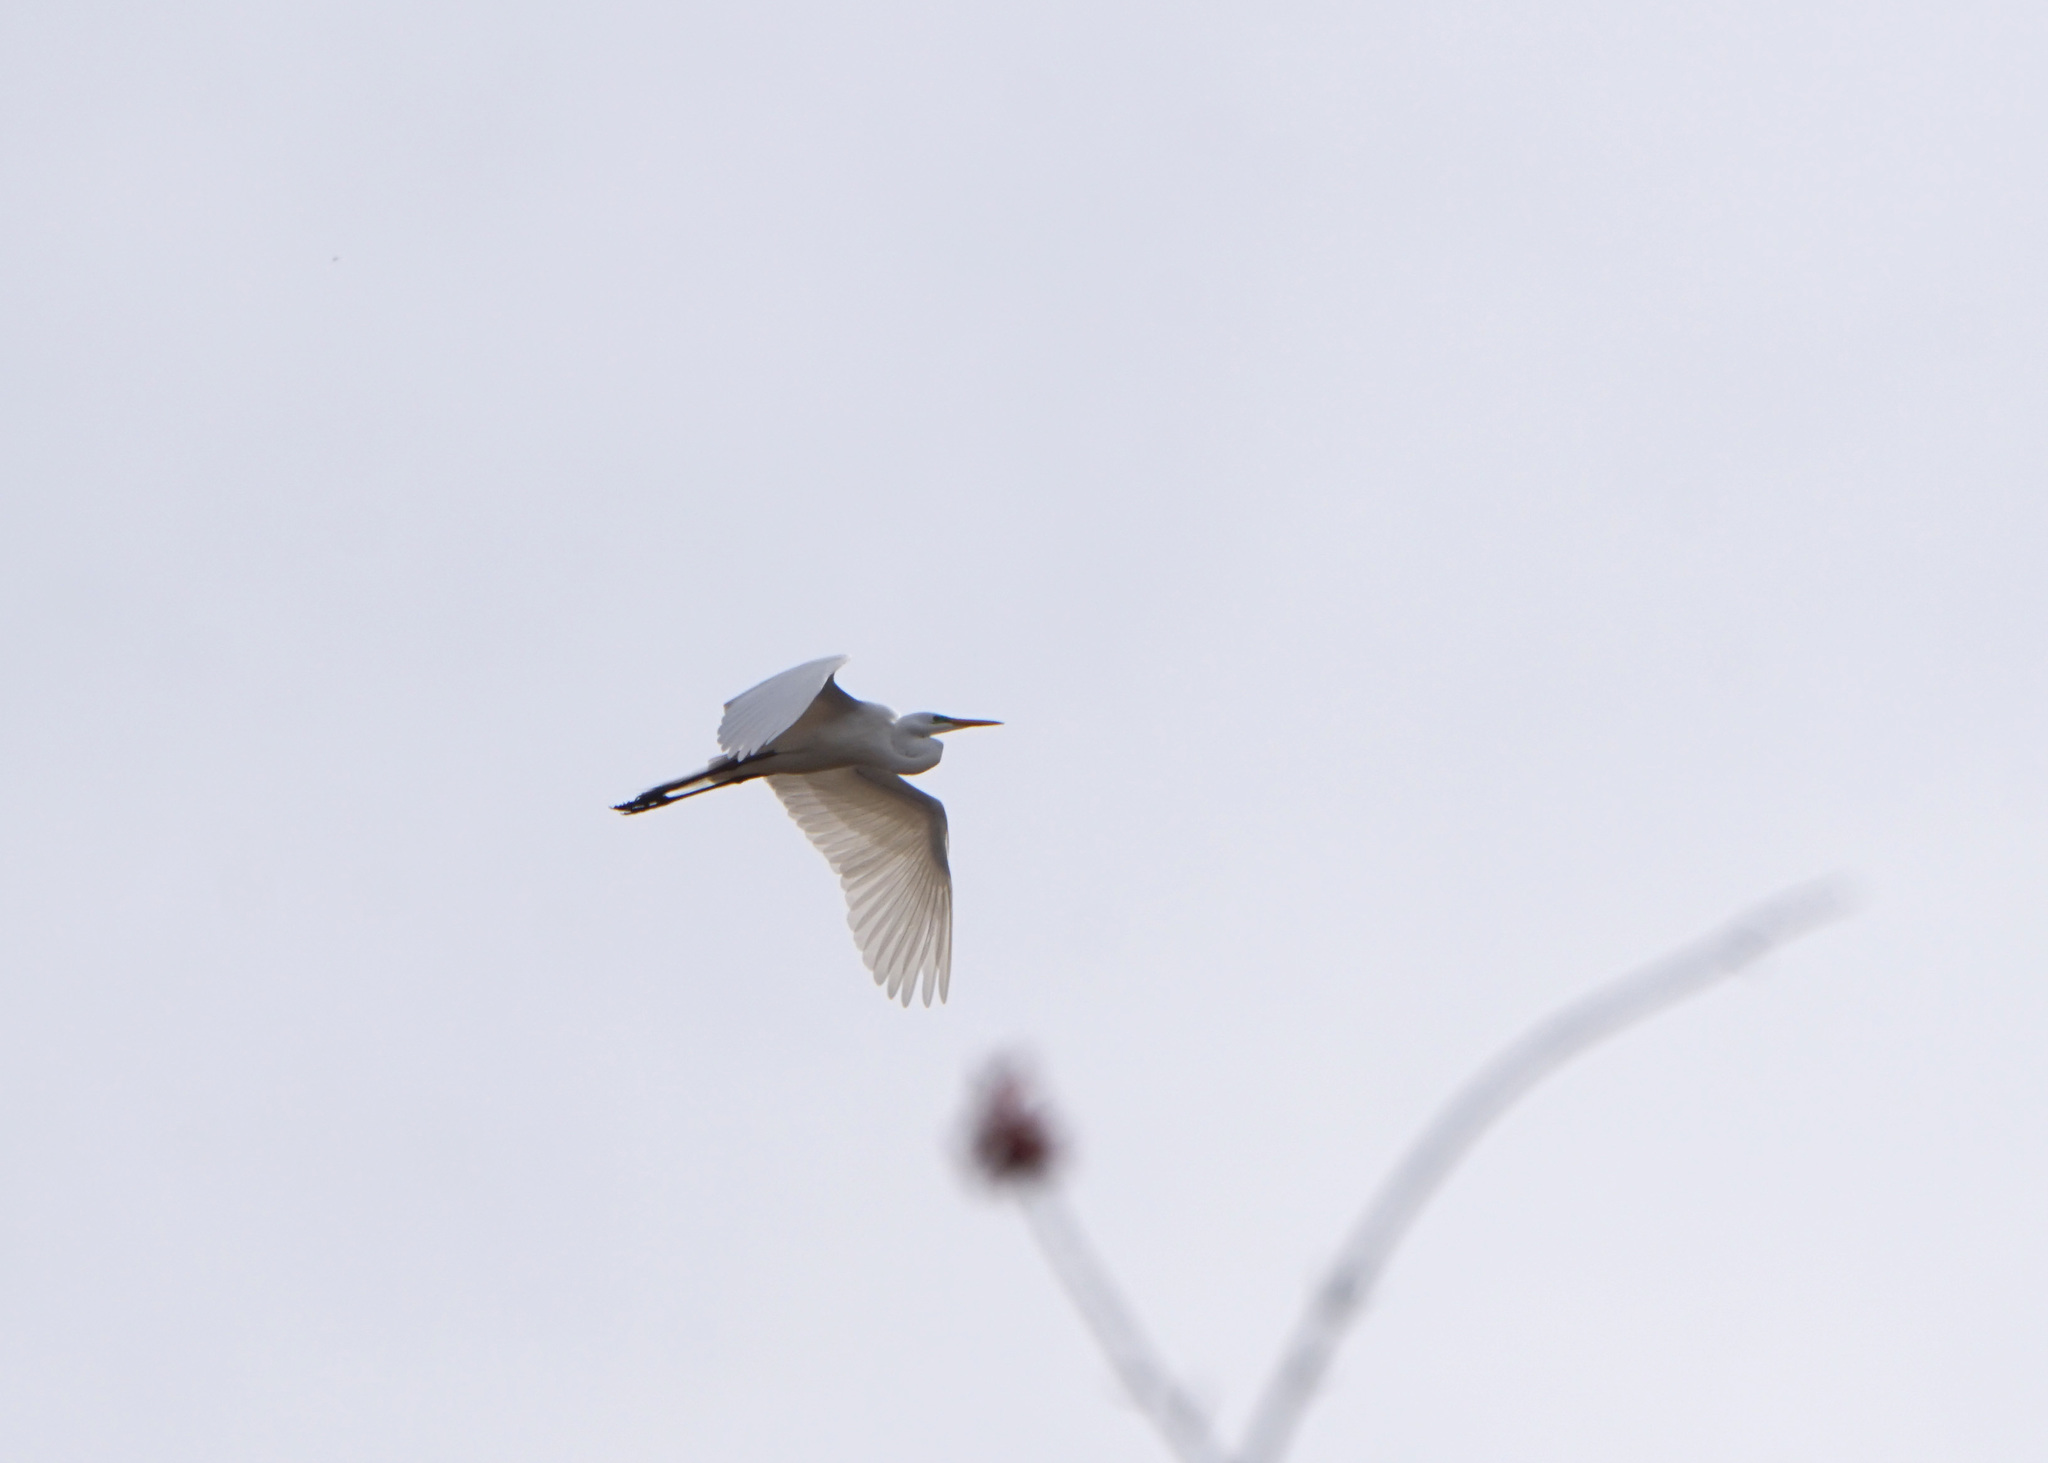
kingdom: Animalia
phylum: Chordata
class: Aves
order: Pelecaniformes
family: Ardeidae
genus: Ardea
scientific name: Ardea alba
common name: Great egret
